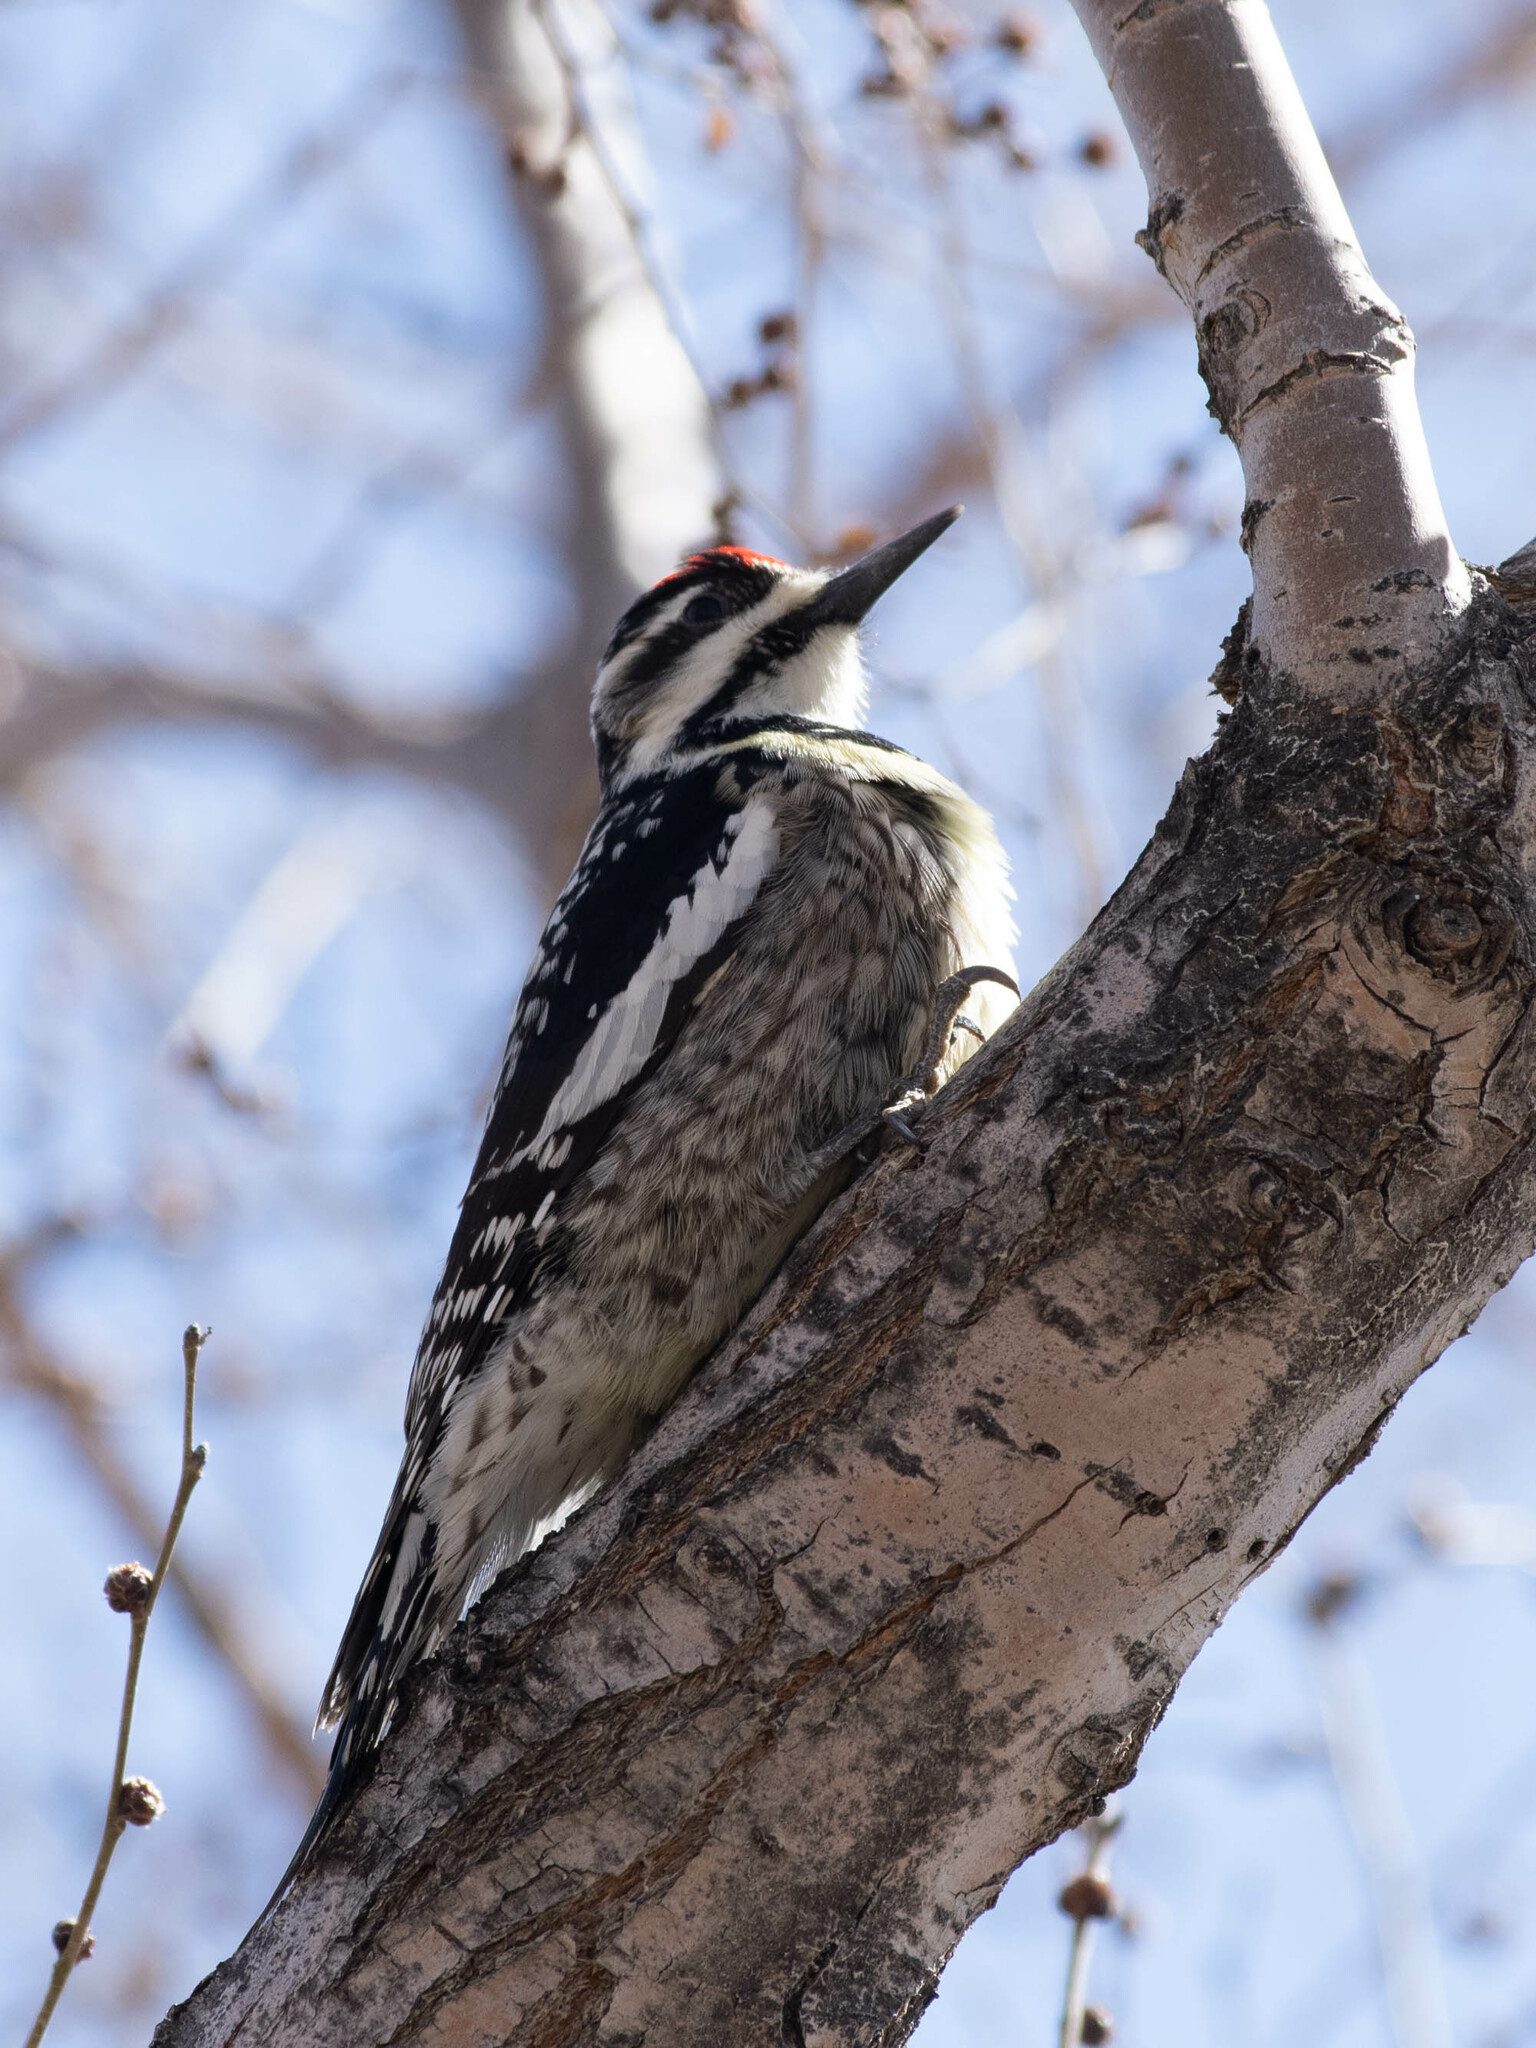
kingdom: Animalia
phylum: Chordata
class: Aves
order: Piciformes
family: Picidae
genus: Sphyrapicus
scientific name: Sphyrapicus varius
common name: Yellow-bellied sapsucker
